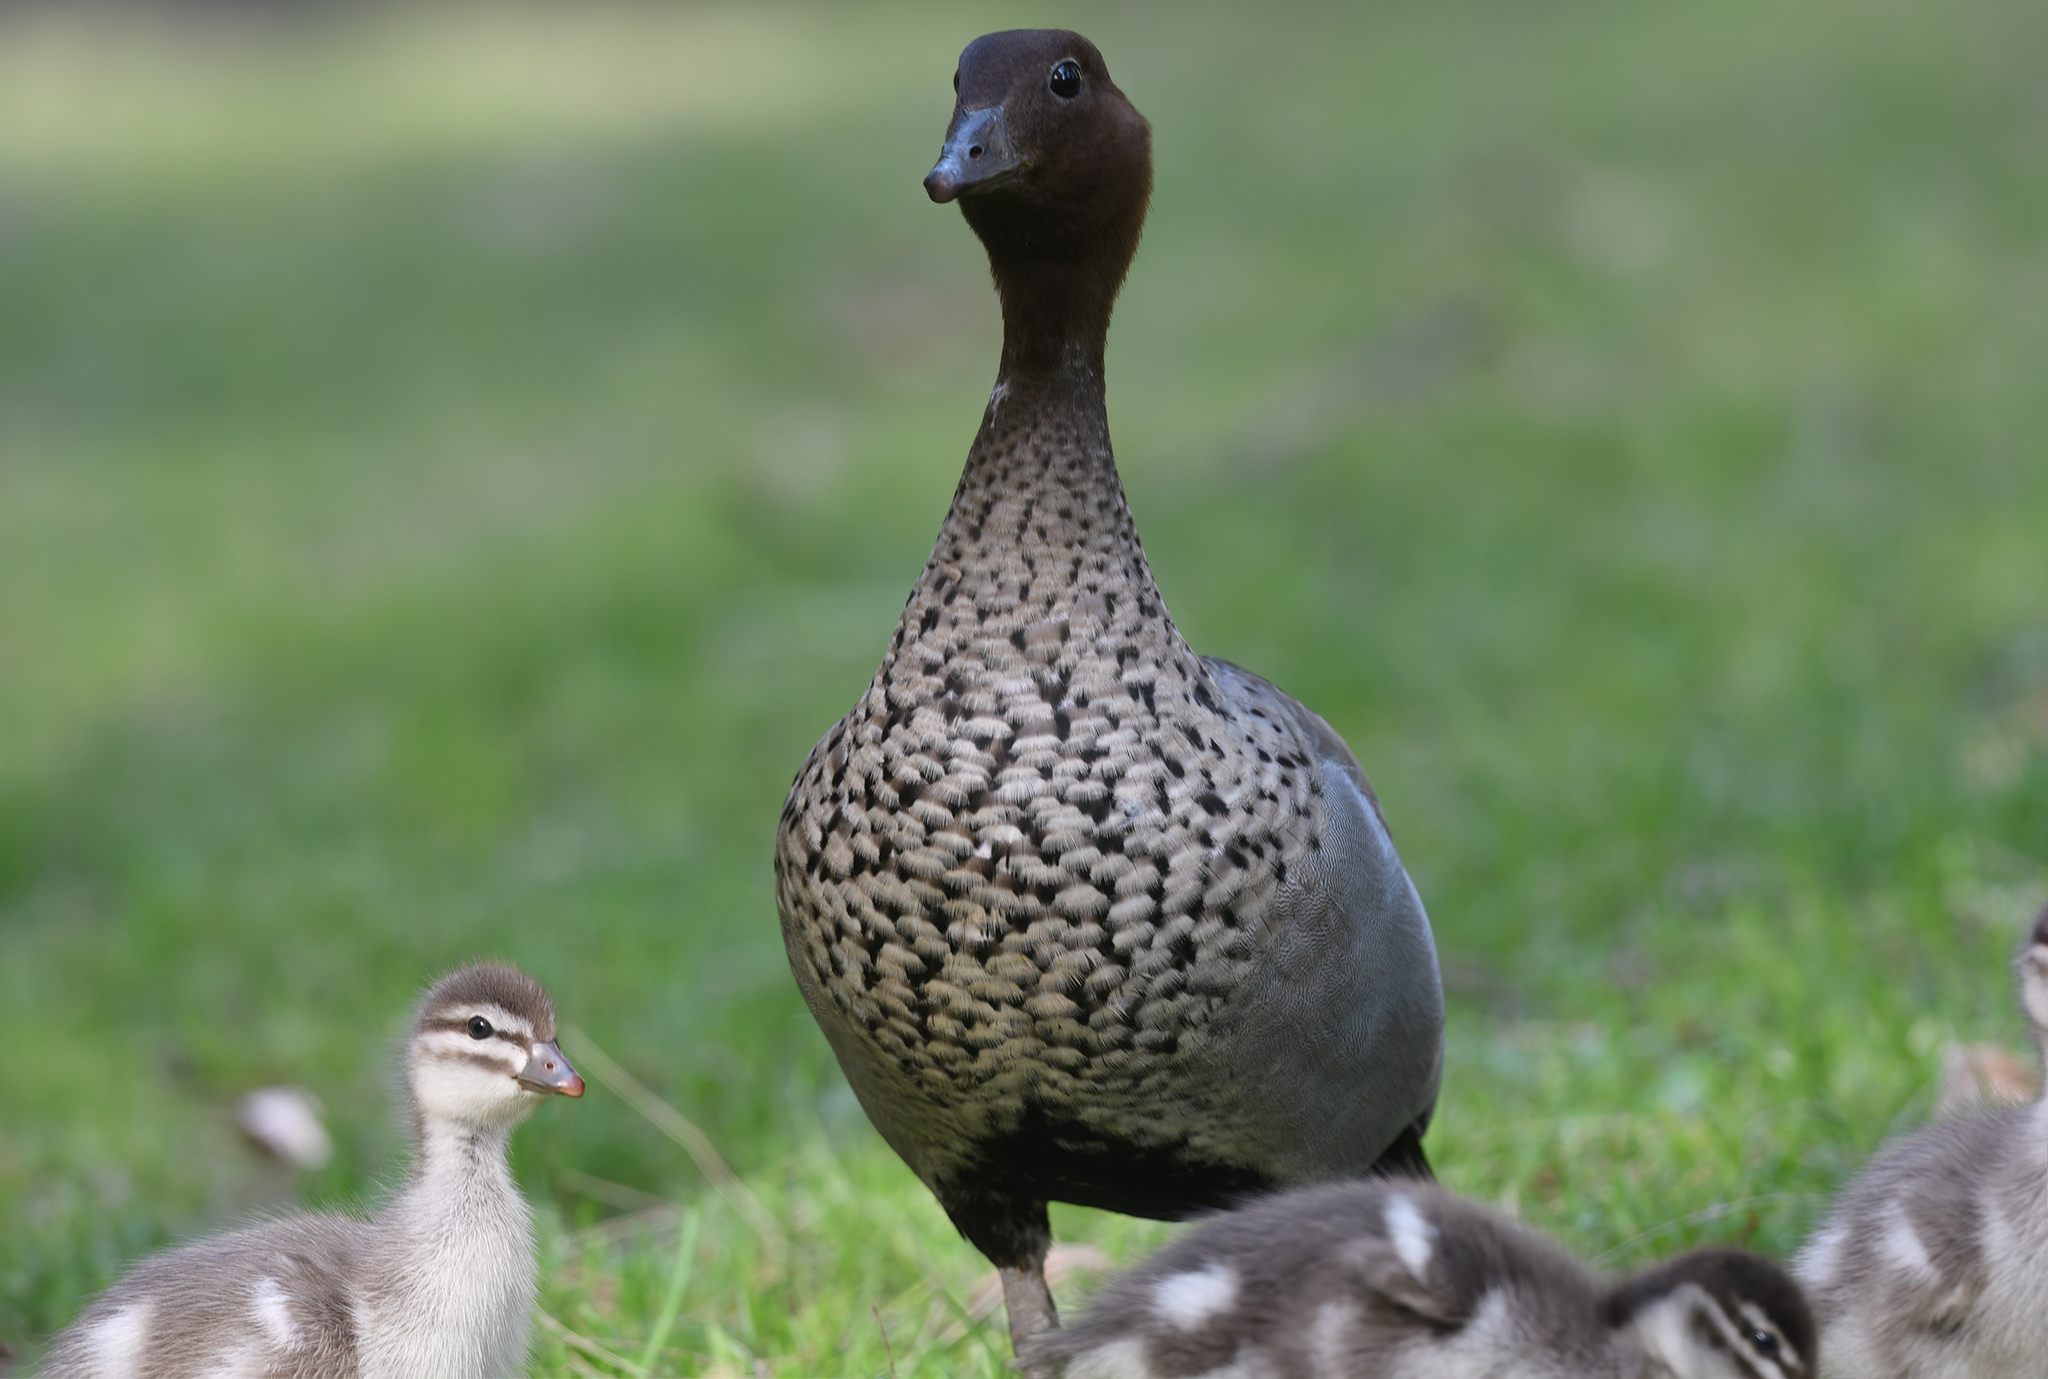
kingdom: Animalia
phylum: Chordata
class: Aves
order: Anseriformes
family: Anatidae
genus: Chenonetta
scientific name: Chenonetta jubata
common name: Maned duck
